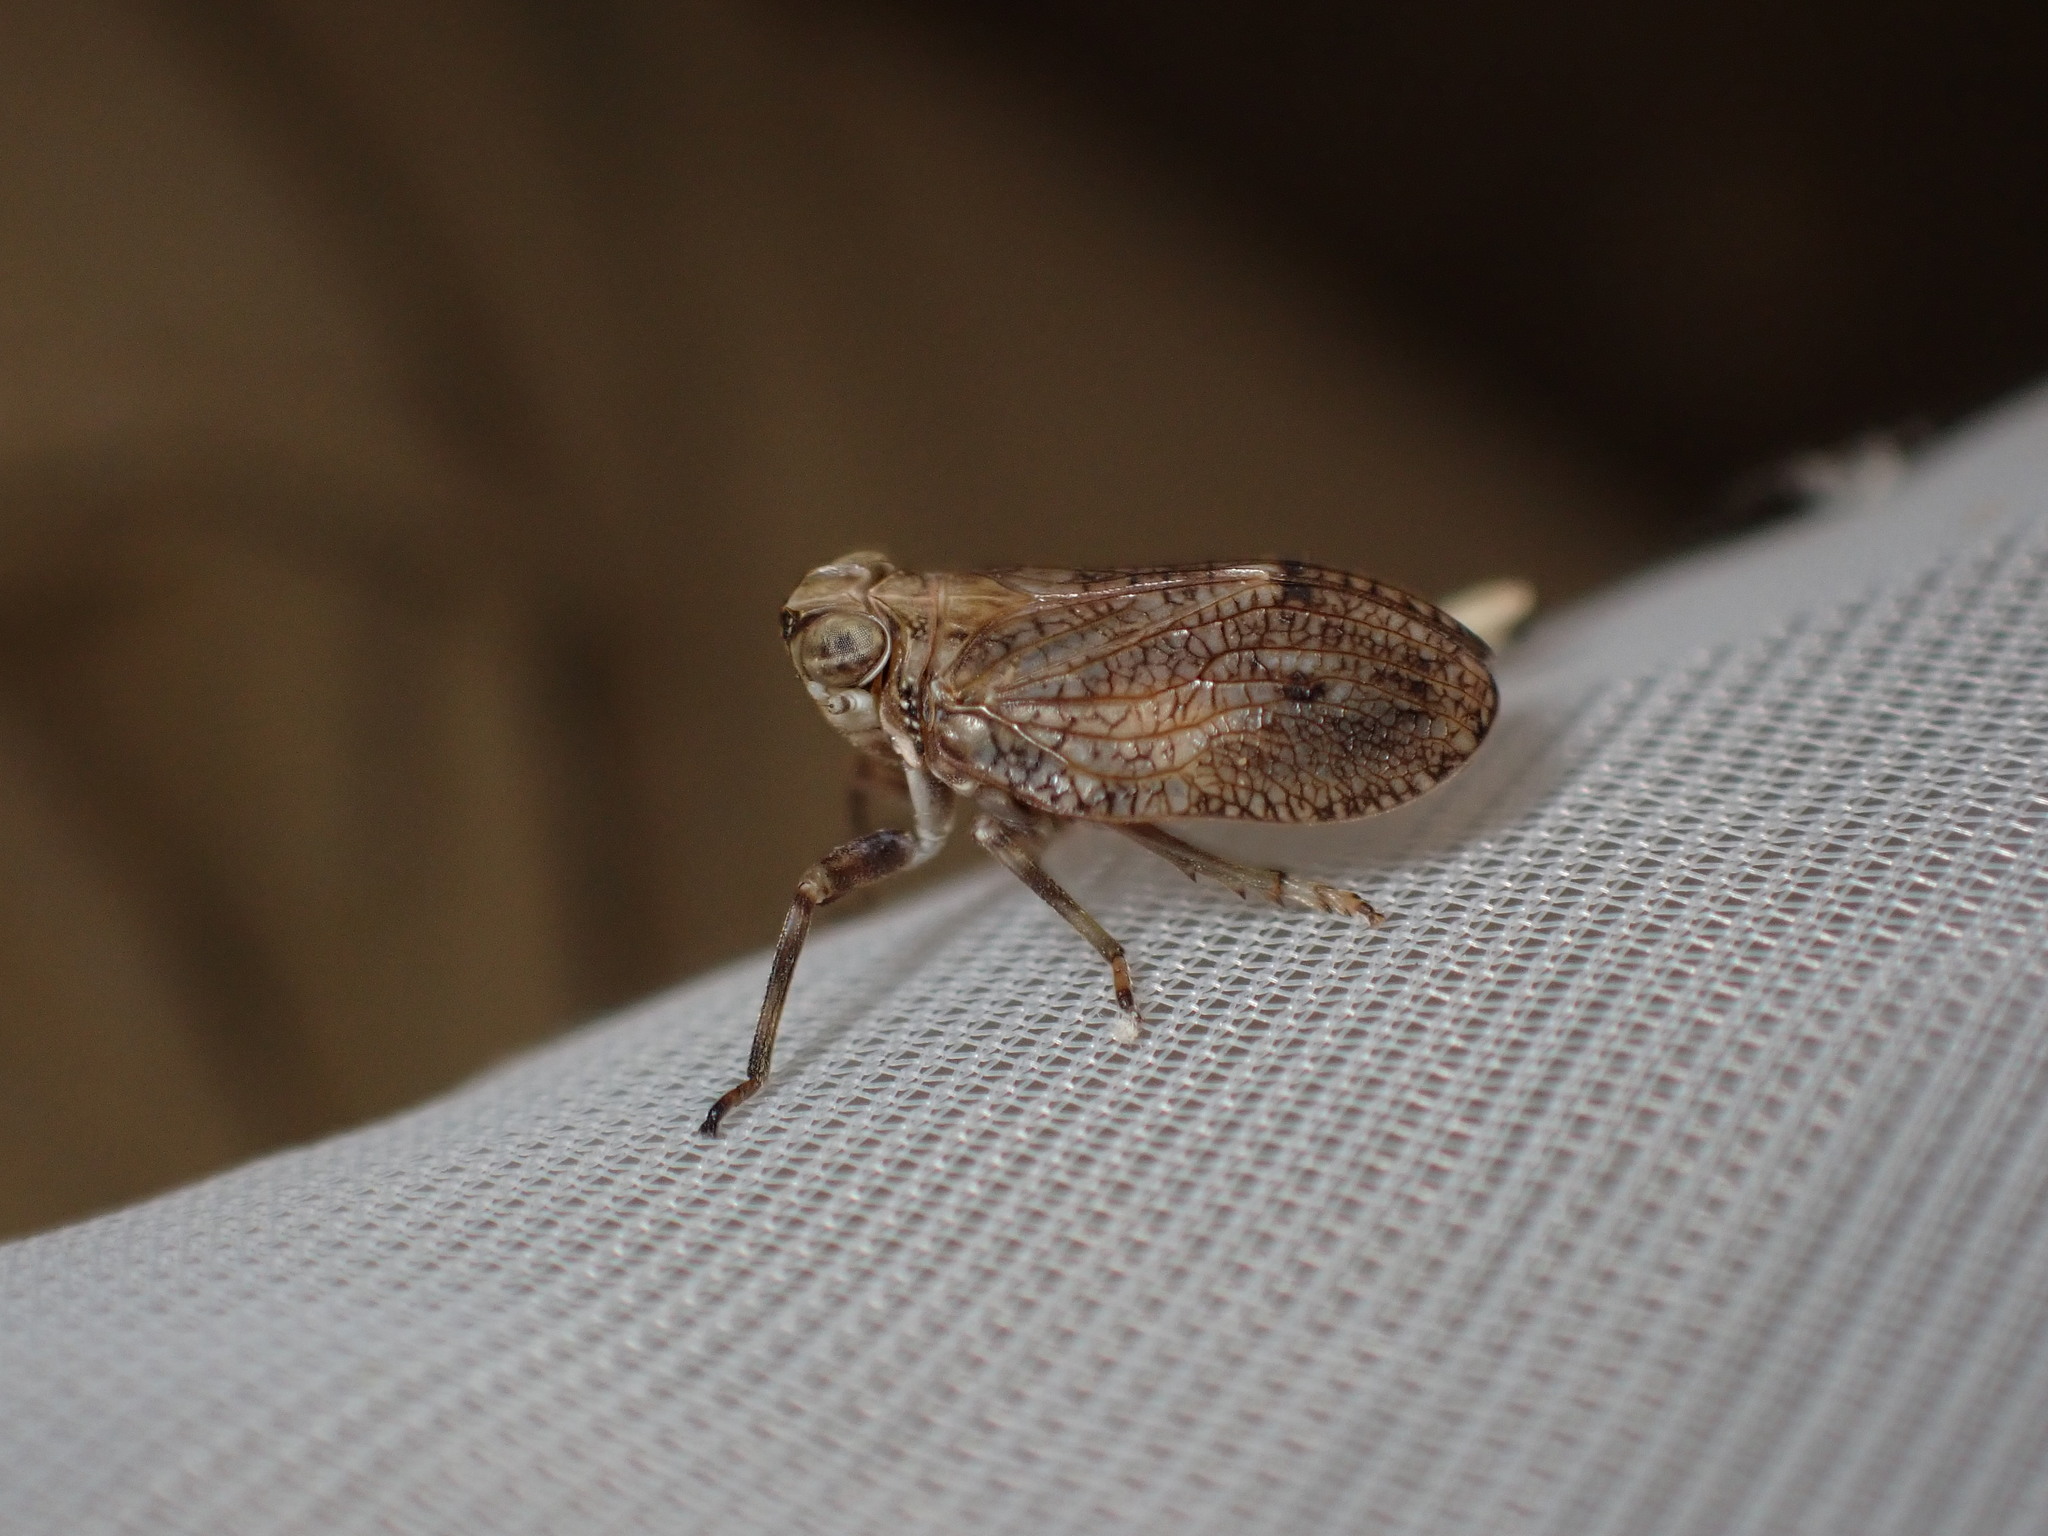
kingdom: Animalia
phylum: Arthropoda
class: Insecta
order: Hemiptera
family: Issidae
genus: Issus
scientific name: Issus coleoptratus
